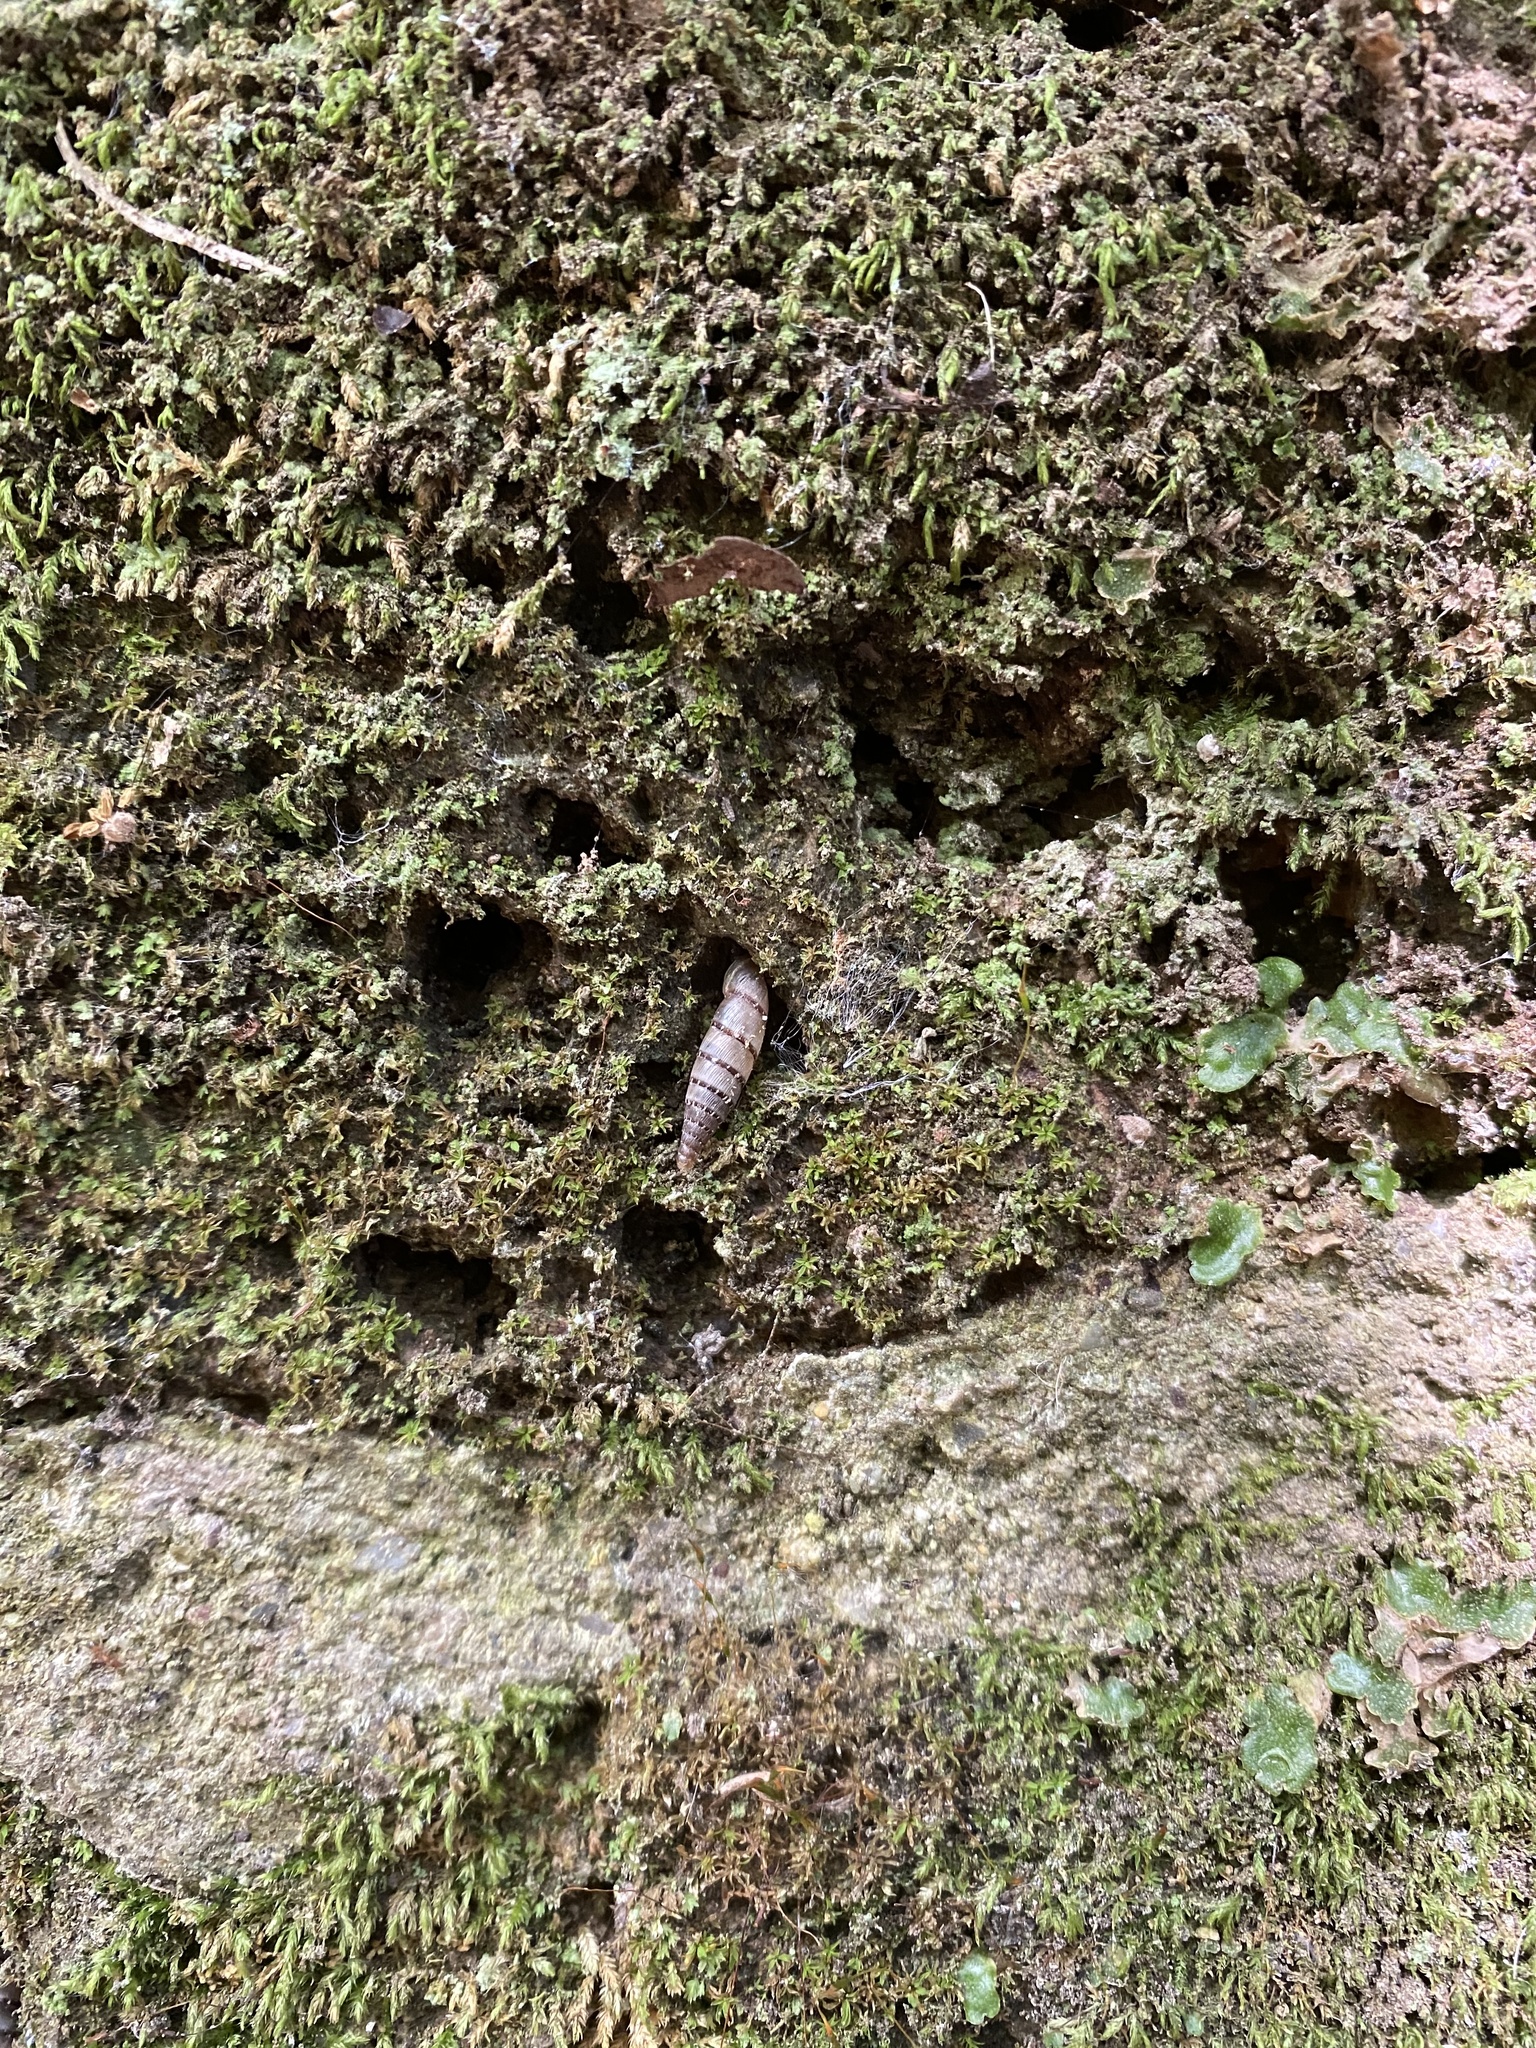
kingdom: Animalia
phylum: Mollusca
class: Gastropoda
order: Stylommatophora
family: Clausiliidae
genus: Papillifera
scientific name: Papillifera papillaris
